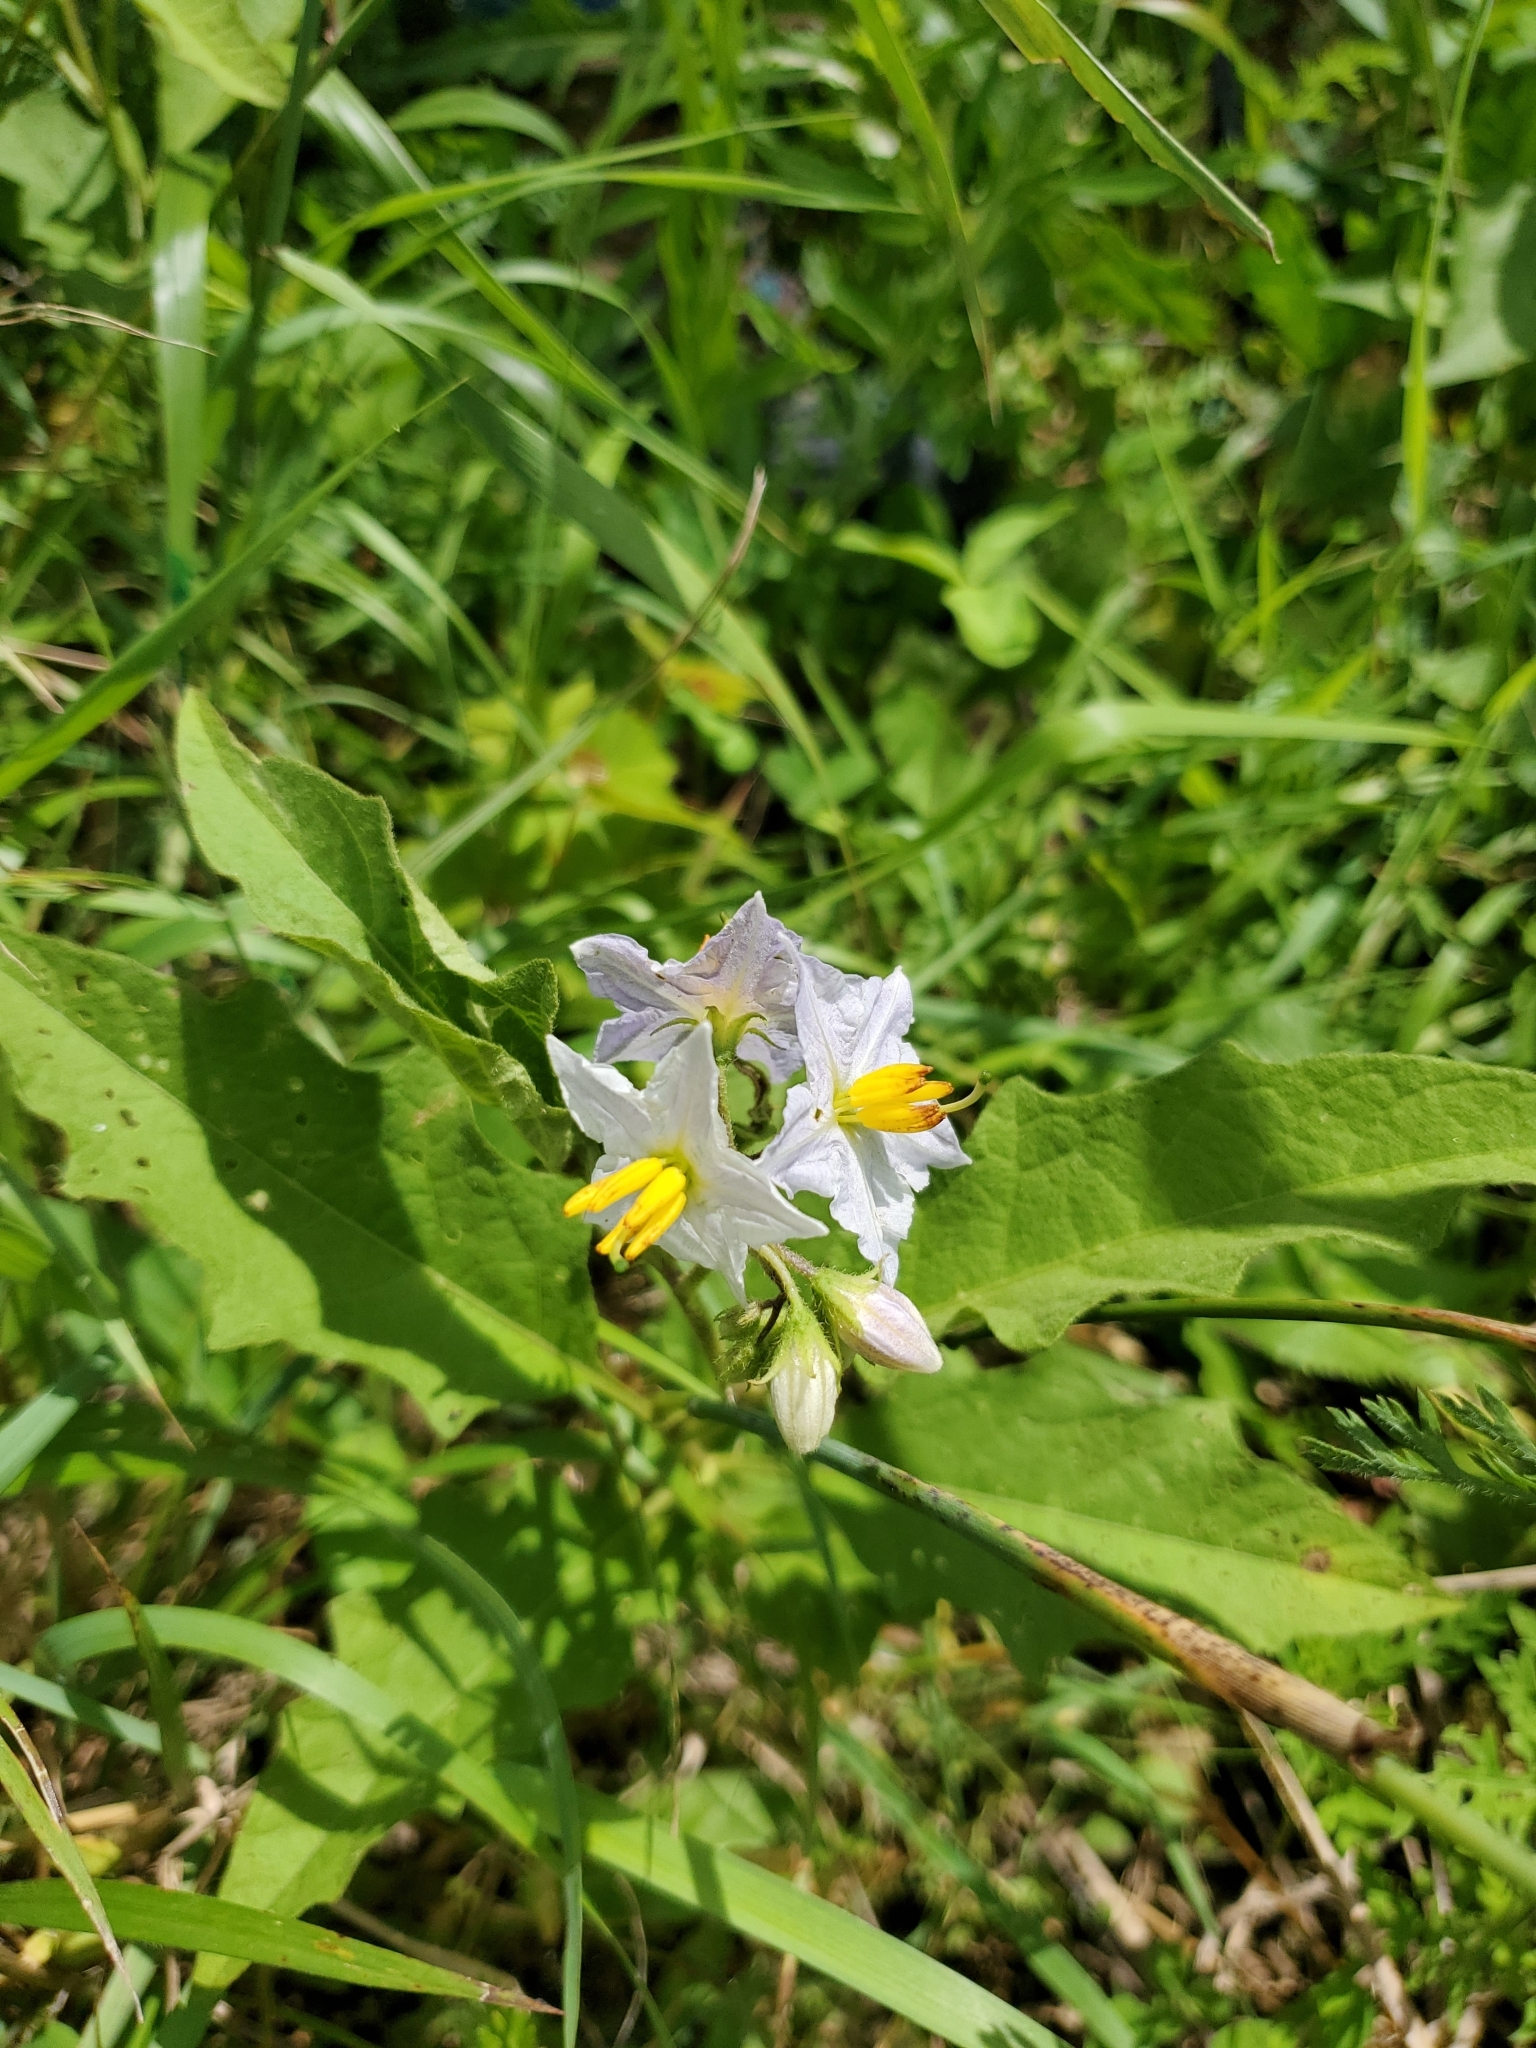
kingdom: Plantae
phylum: Tracheophyta
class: Magnoliopsida
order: Solanales
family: Solanaceae
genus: Solanum
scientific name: Solanum carolinense
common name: Horse-nettle
